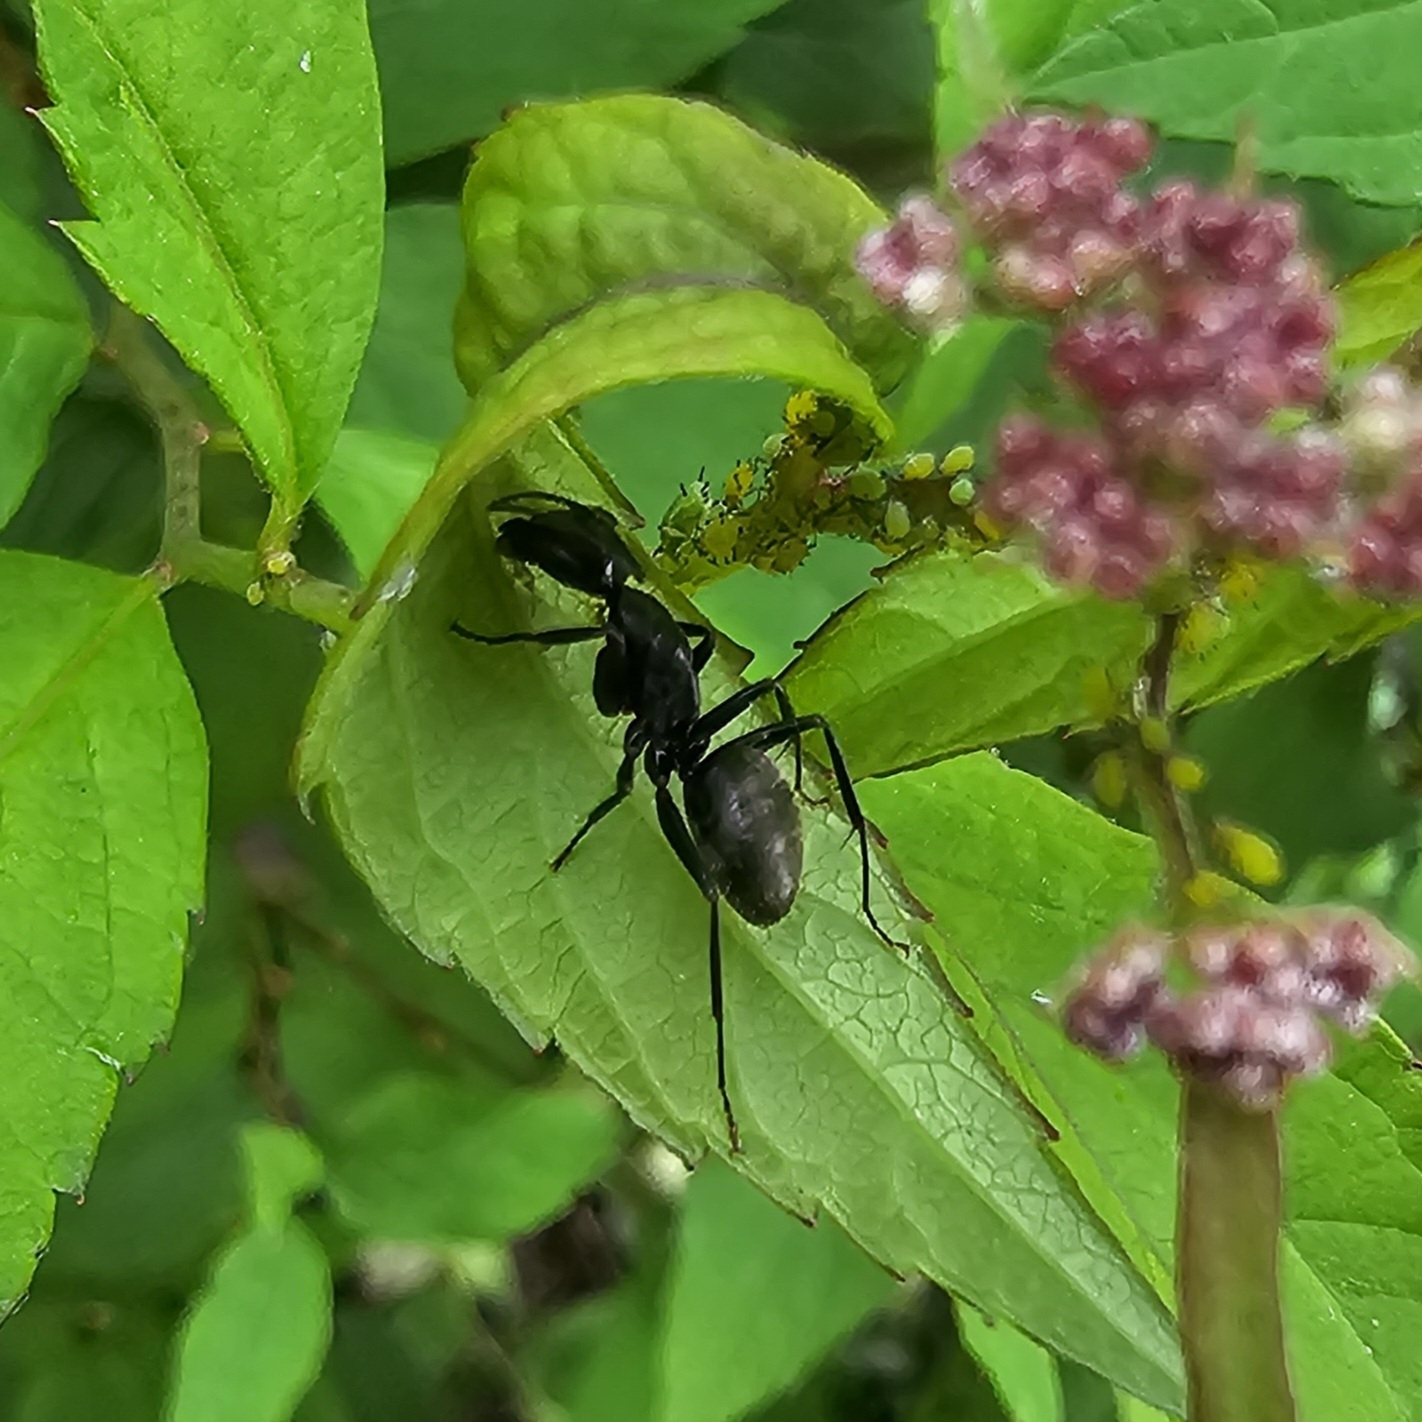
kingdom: Animalia
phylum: Arthropoda
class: Insecta
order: Hymenoptera
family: Formicidae
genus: Camponotus
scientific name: Camponotus pennsylvanicus
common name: Black carpenter ant
